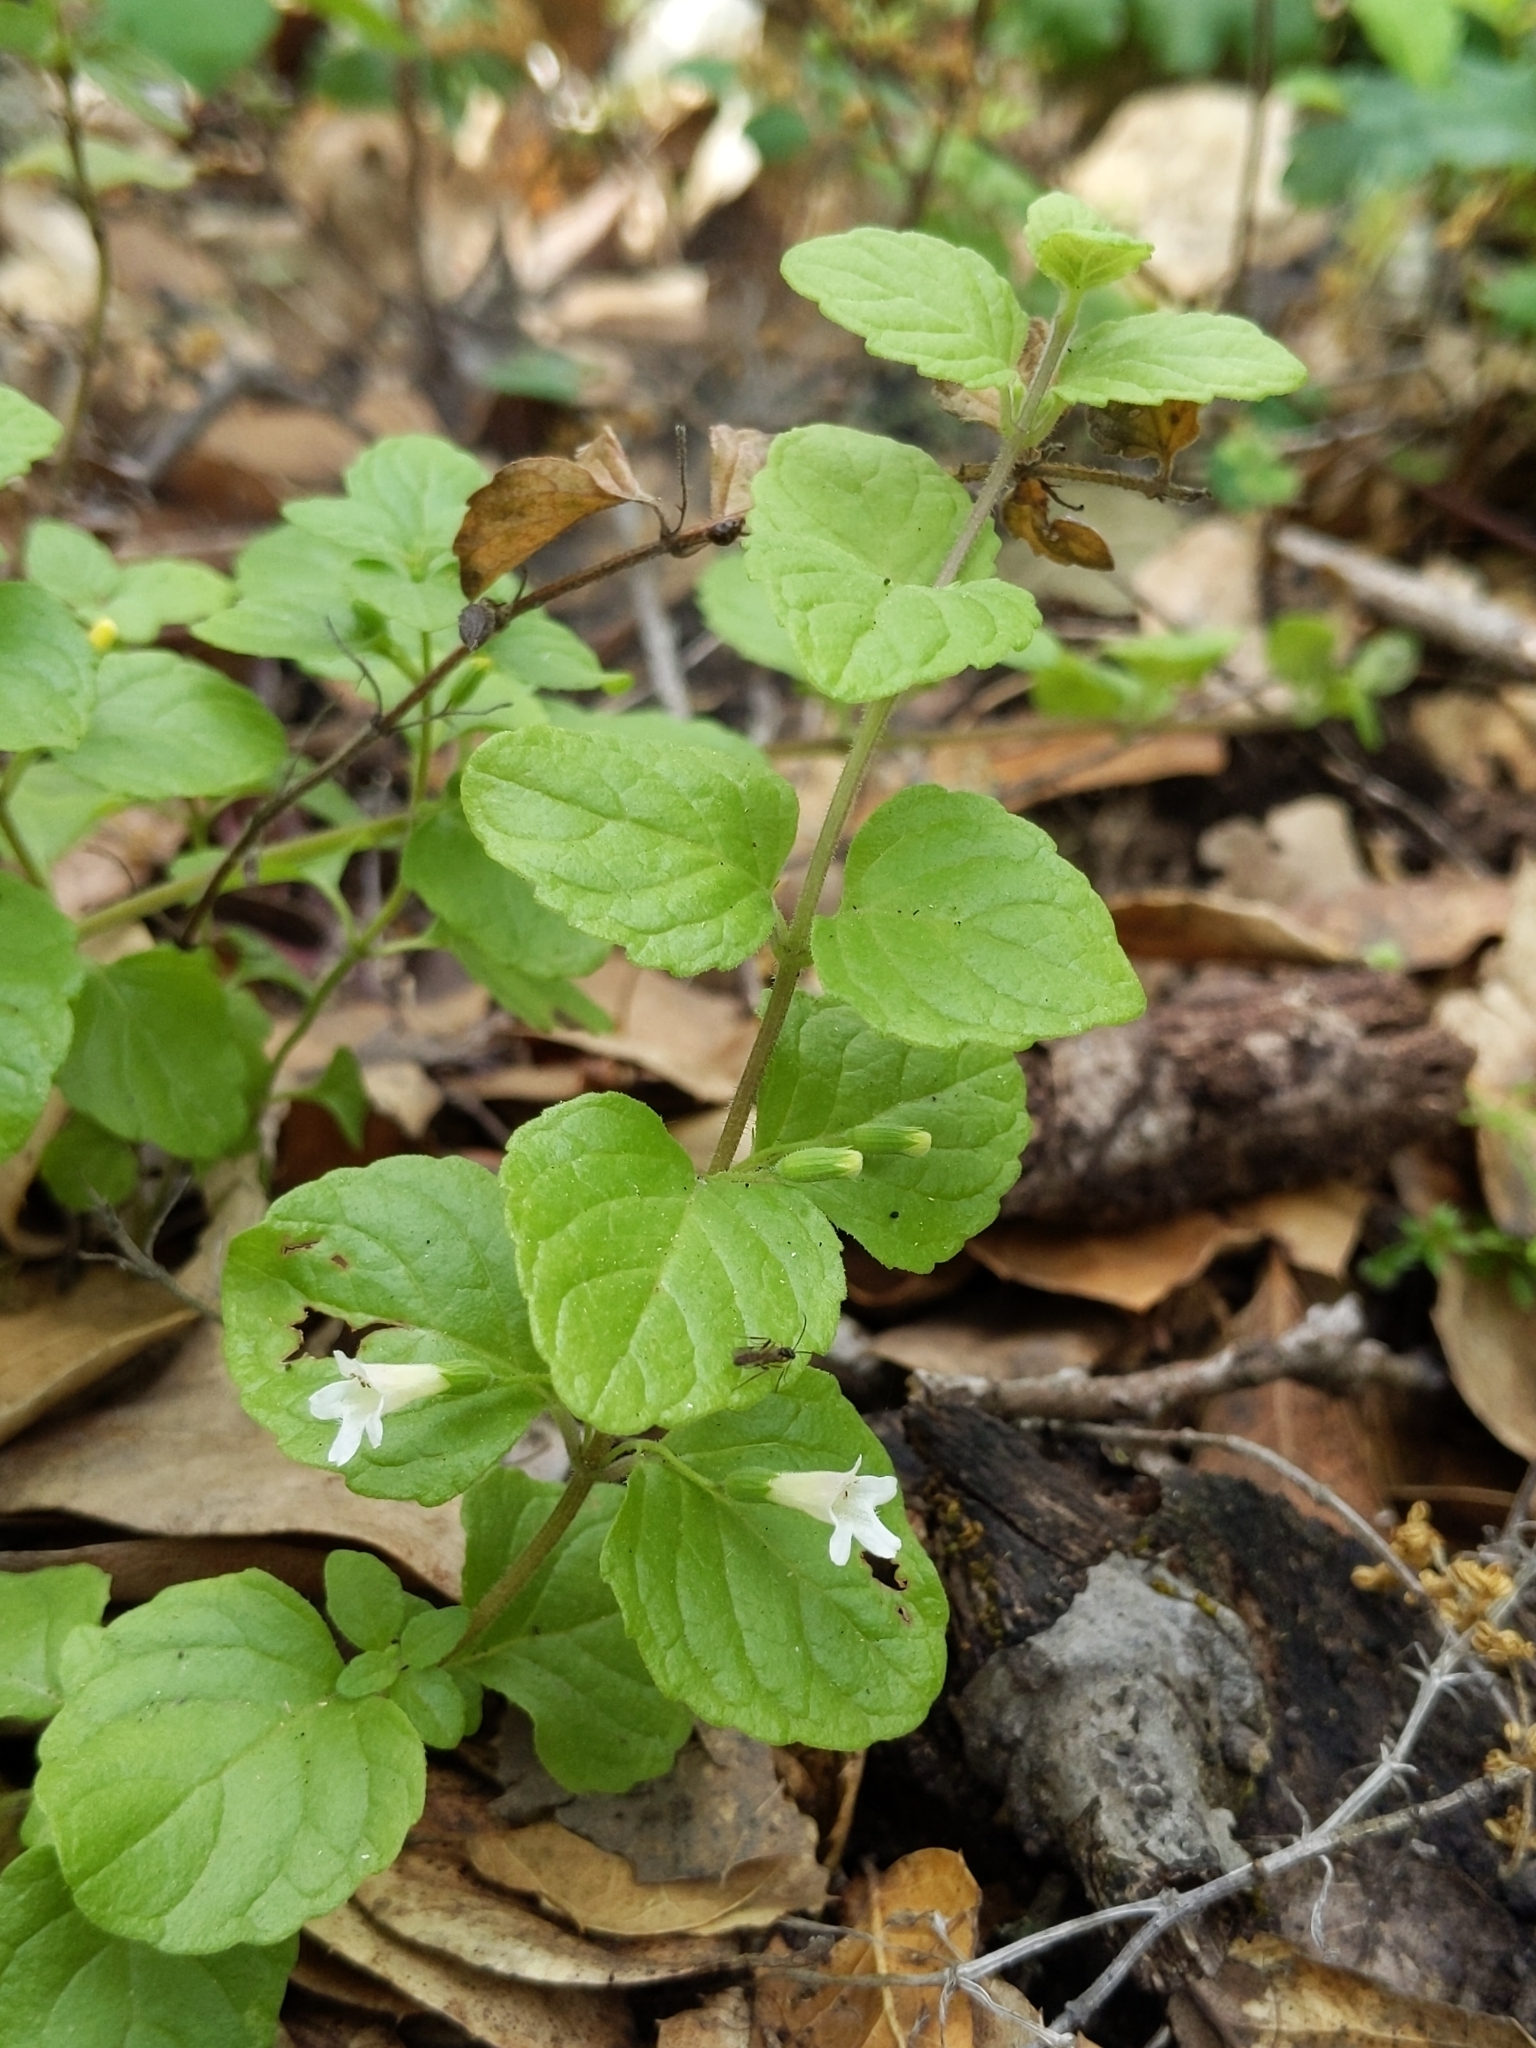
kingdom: Plantae
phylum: Tracheophyta
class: Magnoliopsida
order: Lamiales
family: Lamiaceae
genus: Micromeria
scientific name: Micromeria douglasii
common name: Yerba buena
